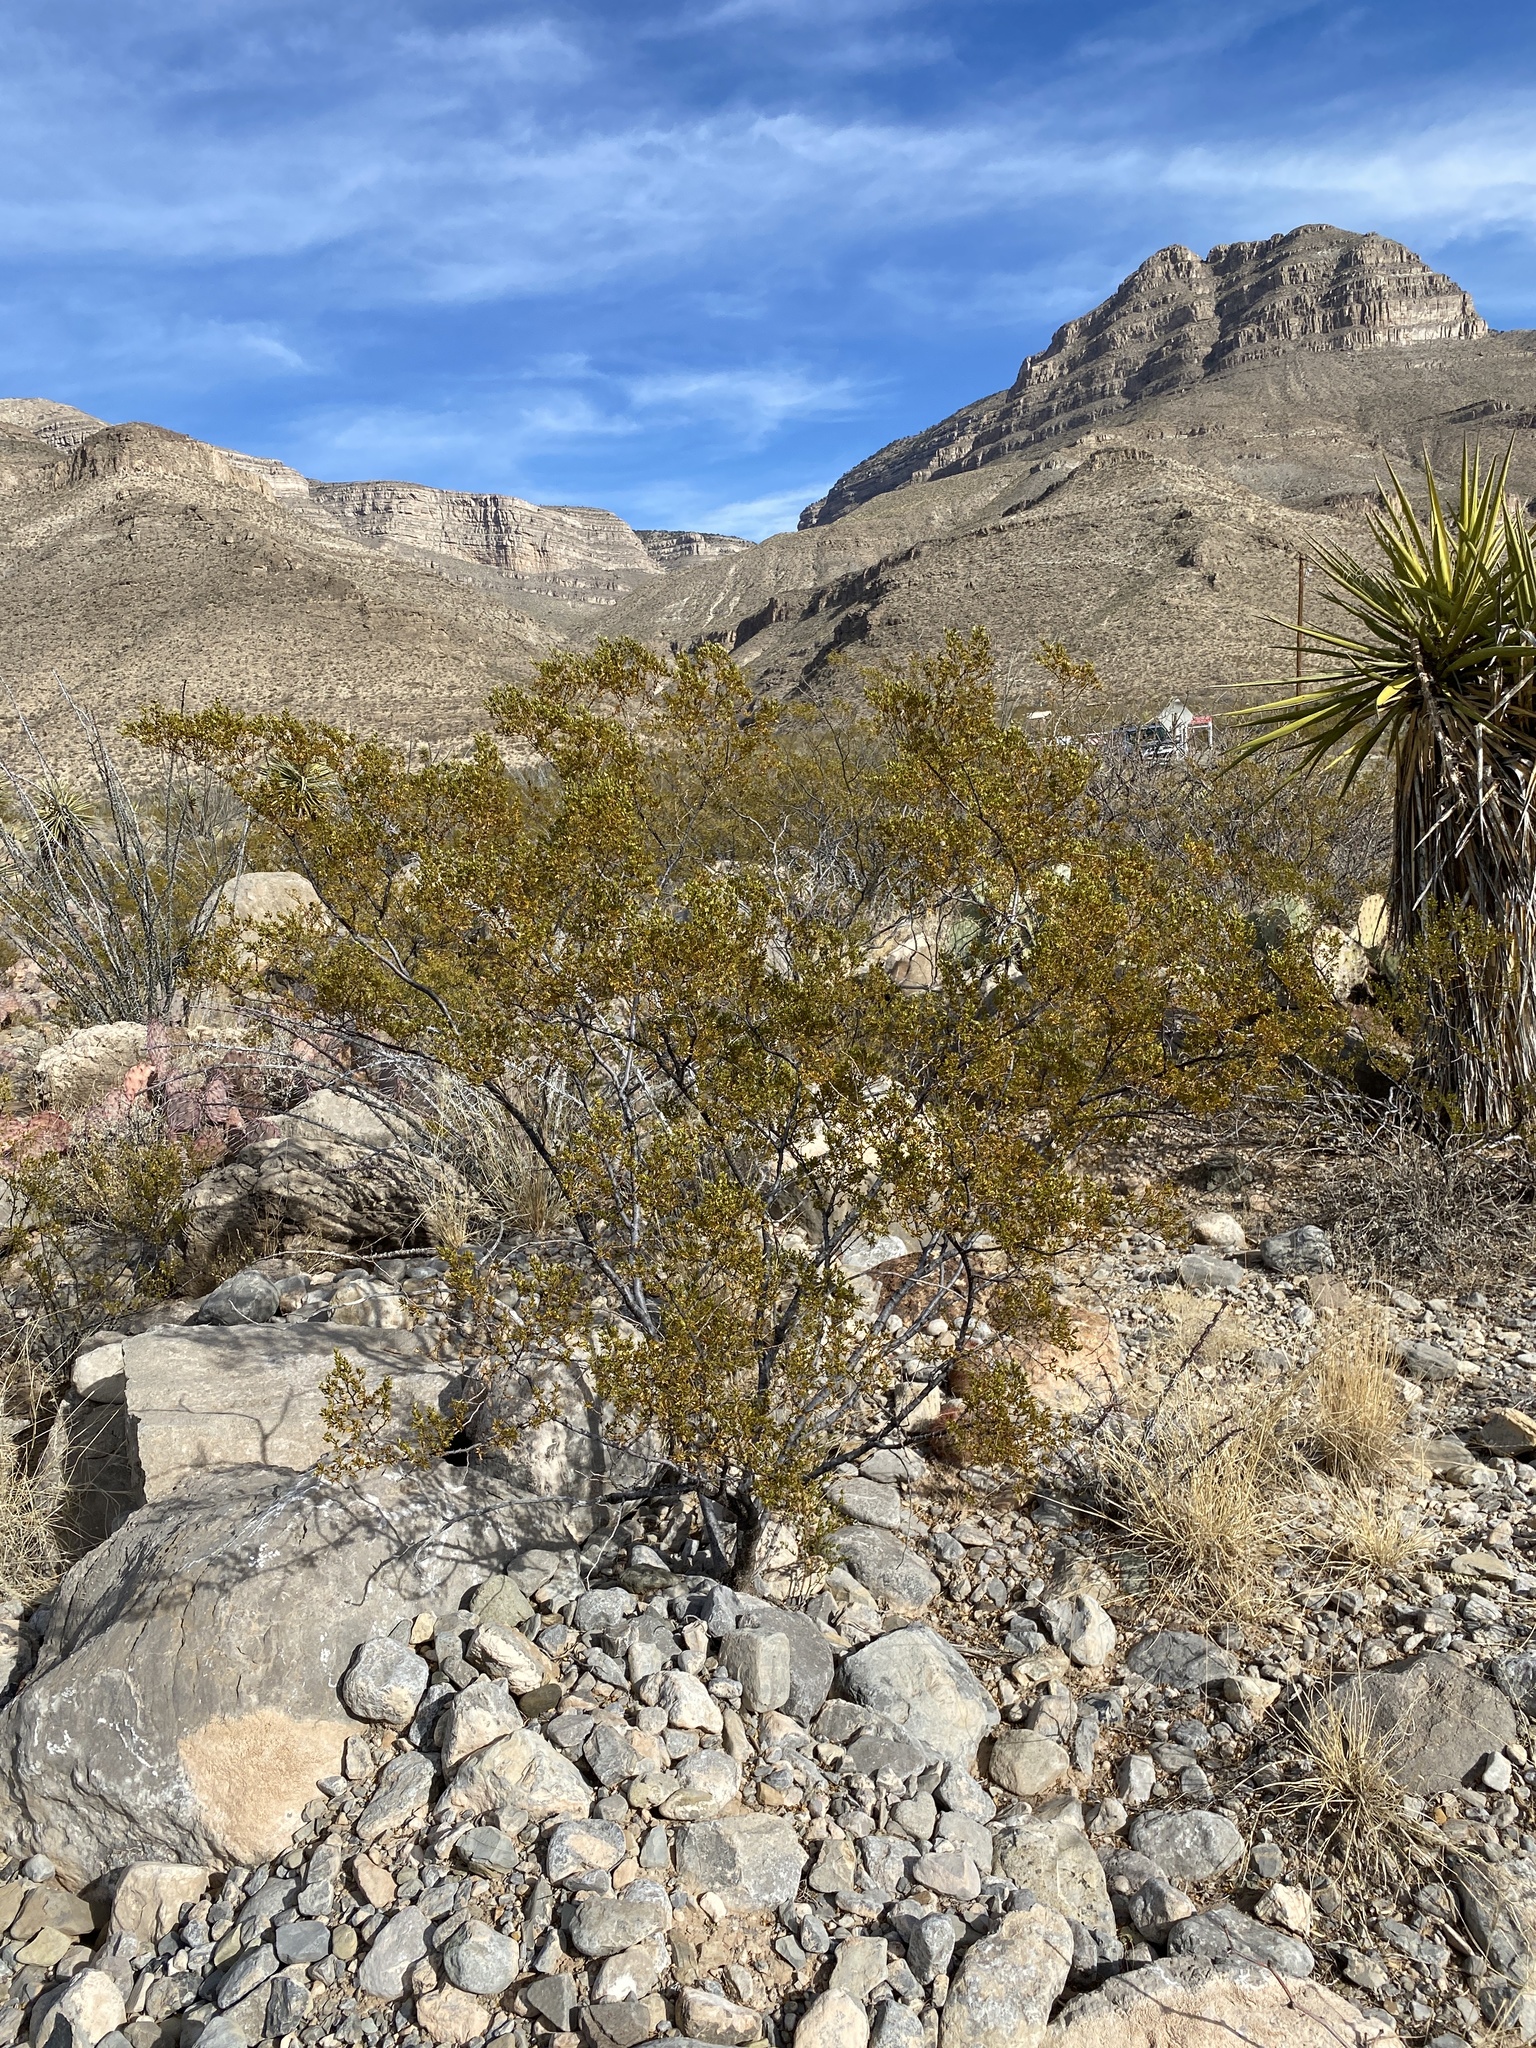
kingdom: Plantae
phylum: Tracheophyta
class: Magnoliopsida
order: Zygophyllales
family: Zygophyllaceae
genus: Larrea
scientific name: Larrea tridentata
